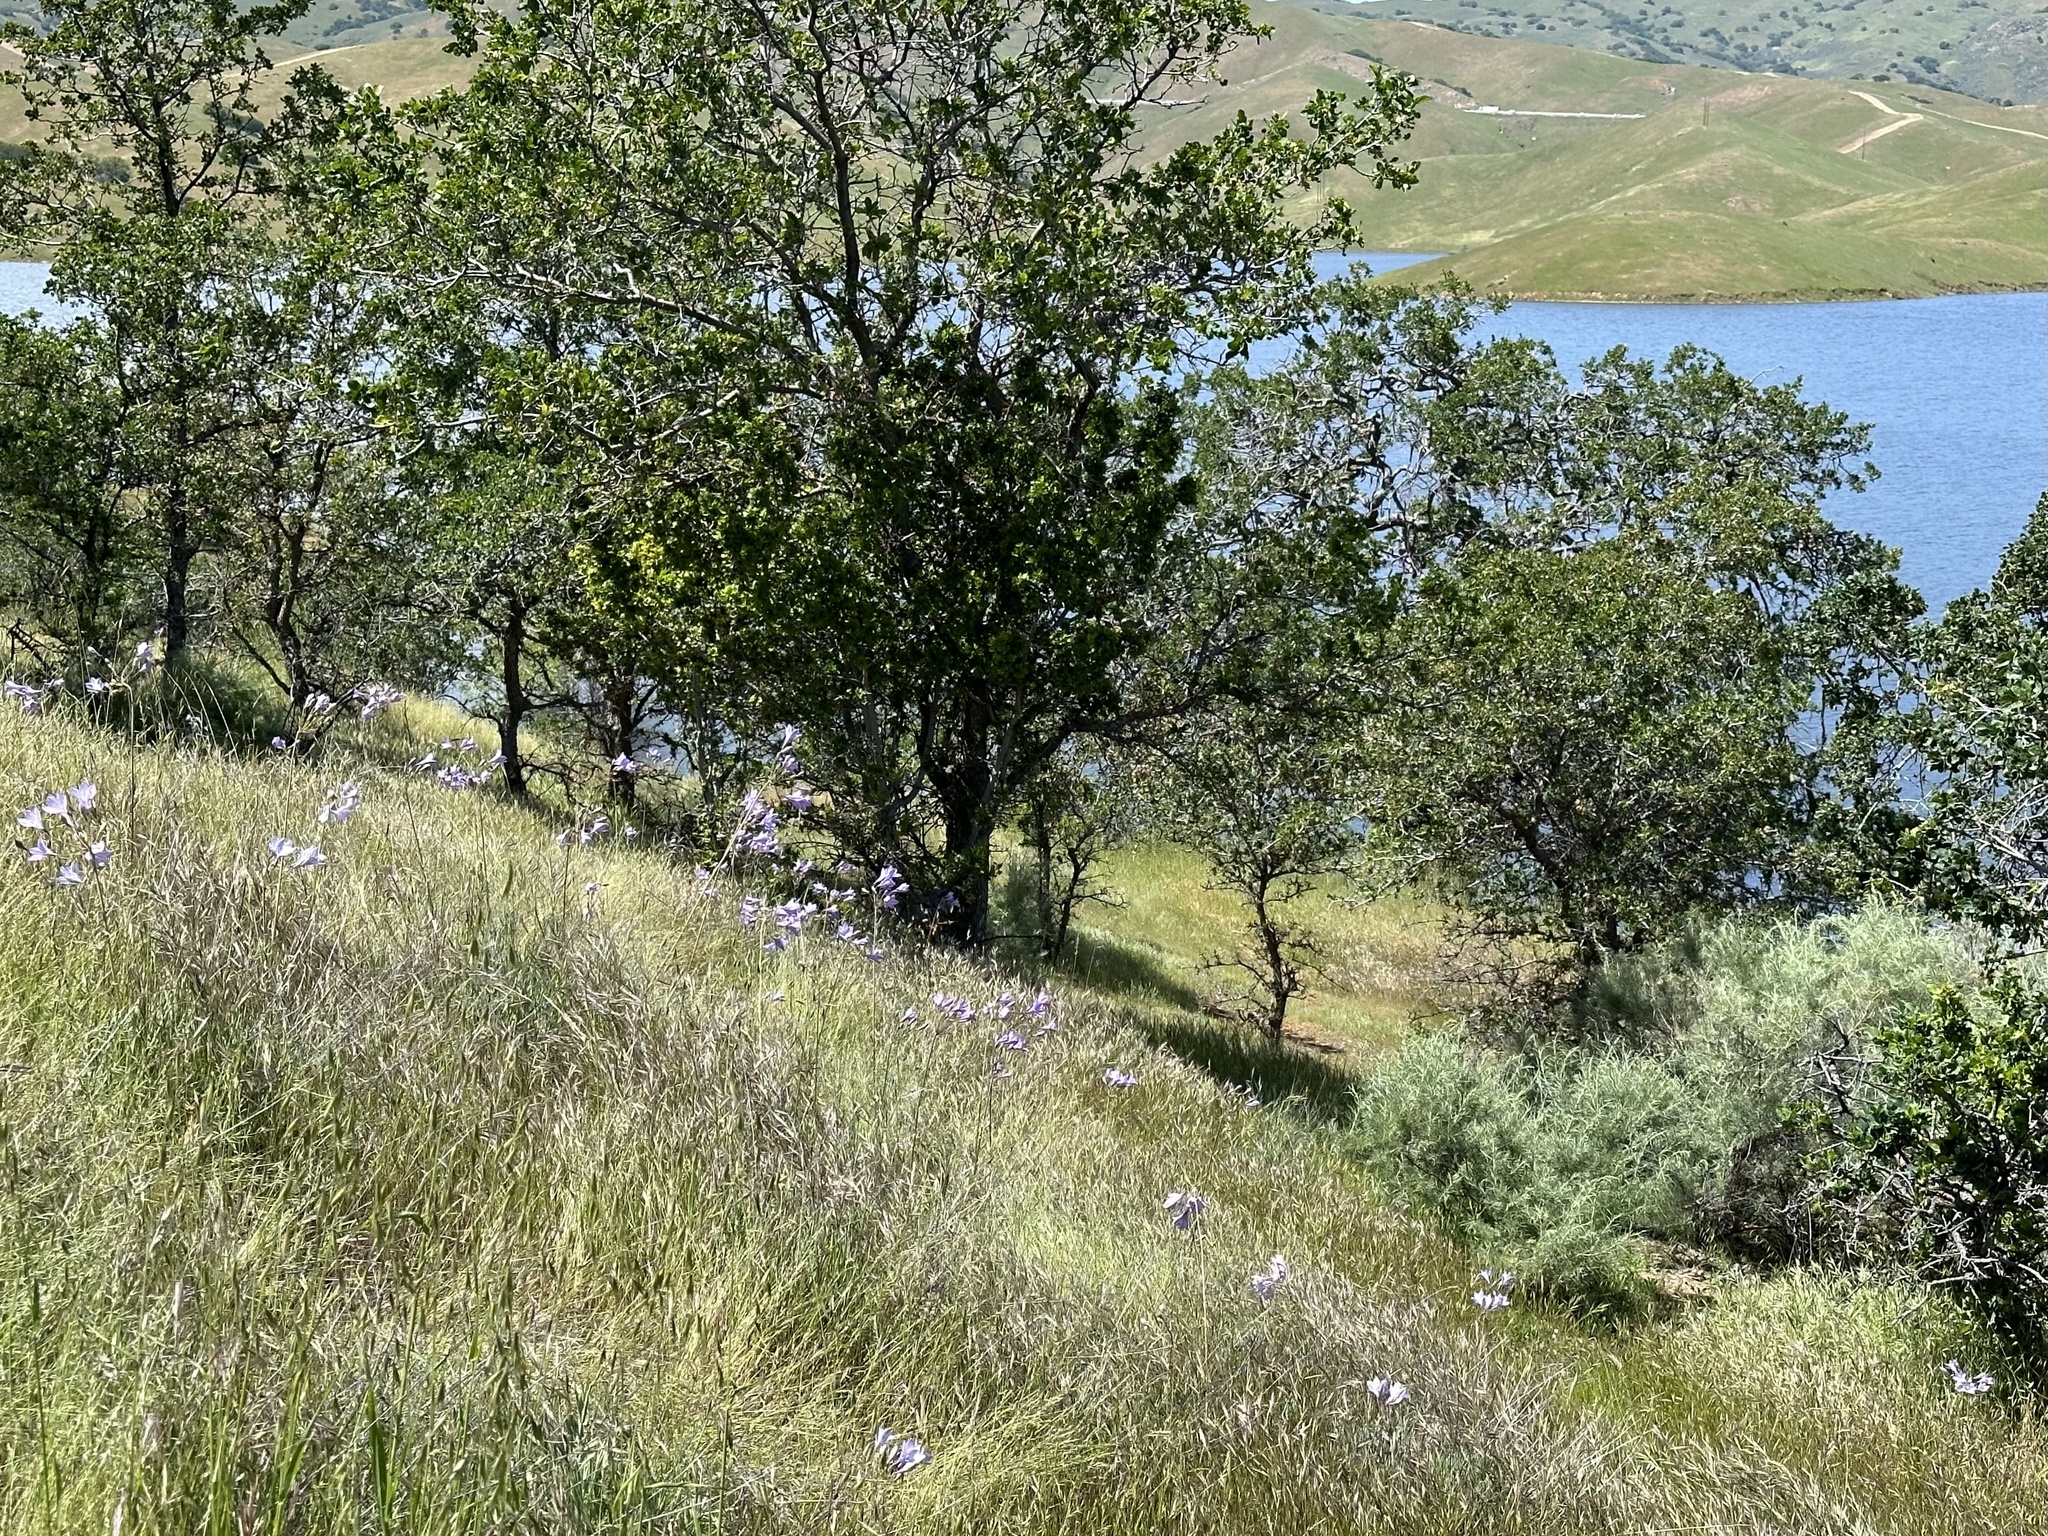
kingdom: Plantae
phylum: Tracheophyta
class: Liliopsida
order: Asparagales
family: Asparagaceae
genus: Triteleia
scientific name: Triteleia laxa
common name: Triplet-lily
